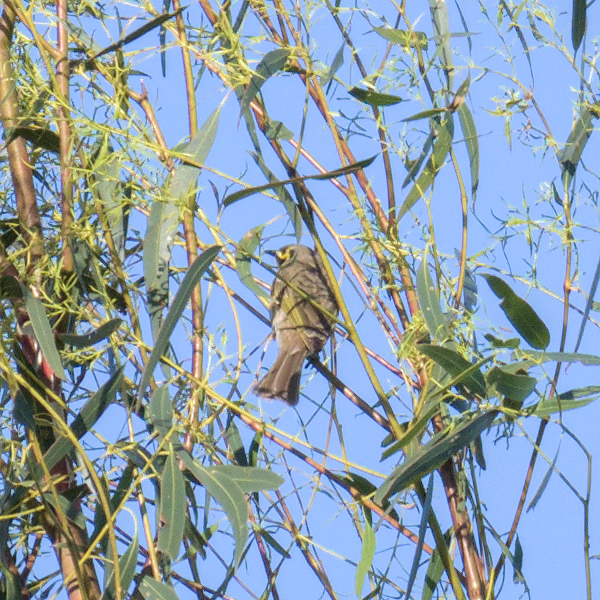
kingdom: Animalia
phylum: Chordata
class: Aves
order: Passeriformes
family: Meliphagidae
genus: Caligavis
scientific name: Caligavis chrysops
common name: Yellow-faced honeyeater
